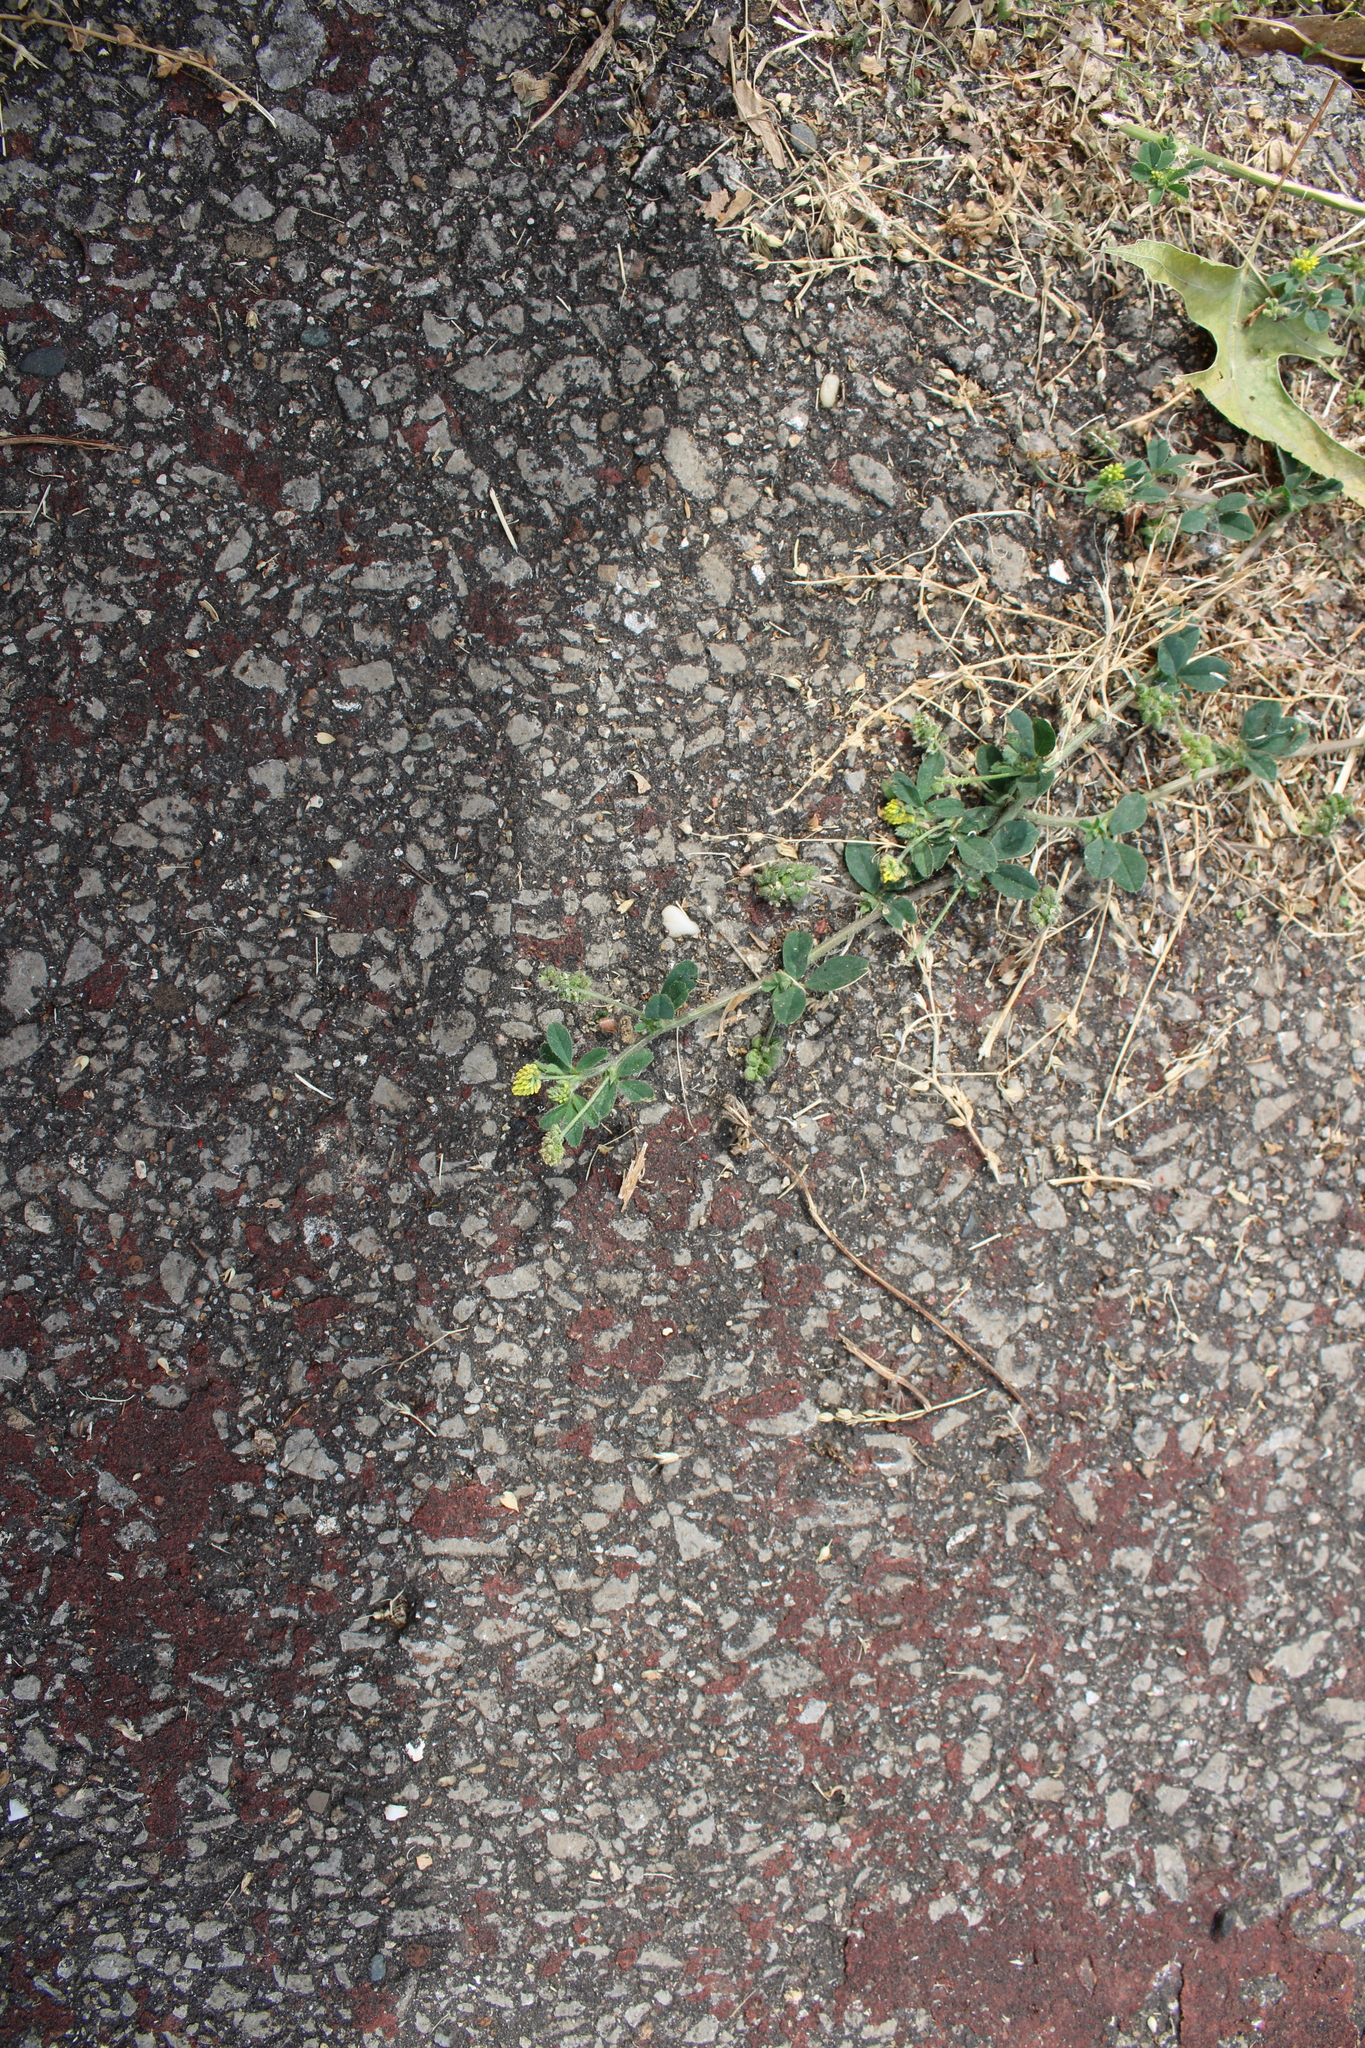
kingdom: Plantae
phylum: Tracheophyta
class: Magnoliopsida
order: Fabales
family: Fabaceae
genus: Medicago
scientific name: Medicago lupulina
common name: Black medick
